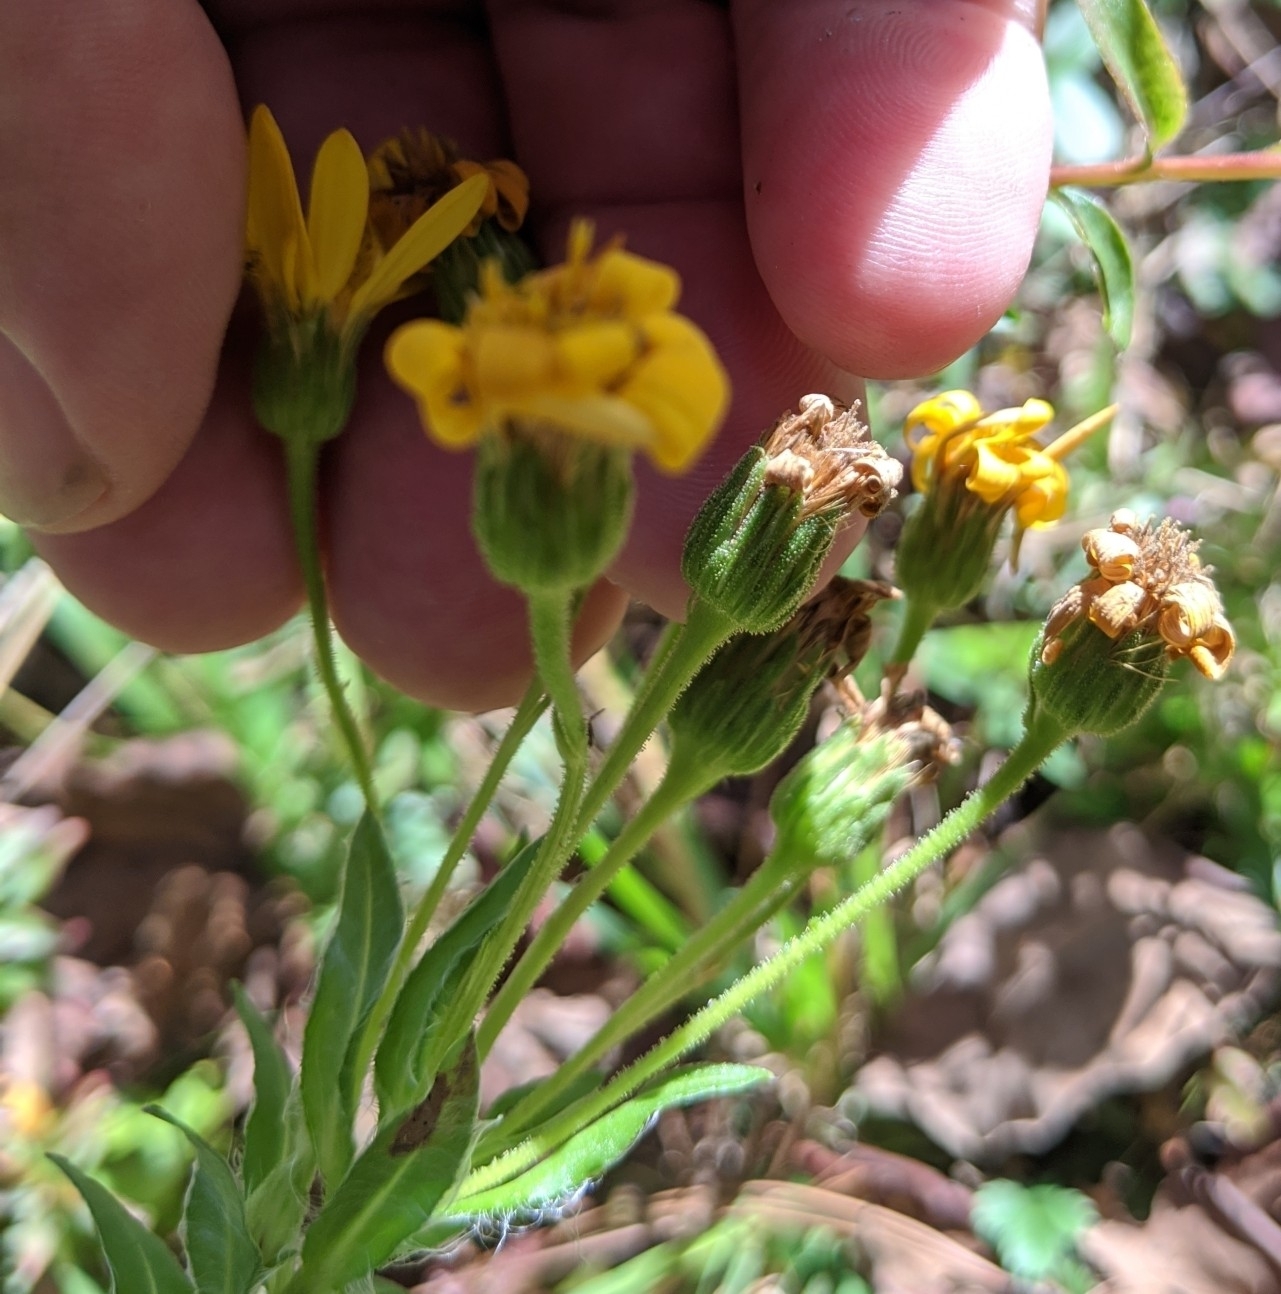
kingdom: Plantae
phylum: Tracheophyta
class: Magnoliopsida
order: Asterales
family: Asteraceae
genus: Heterotheca
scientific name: Heterotheca subaxillaris
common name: Camphorweed
